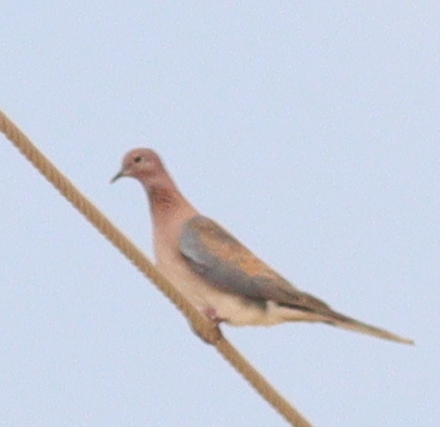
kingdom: Animalia
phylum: Chordata
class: Aves
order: Columbiformes
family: Columbidae
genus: Spilopelia
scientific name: Spilopelia senegalensis
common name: Laughing dove
